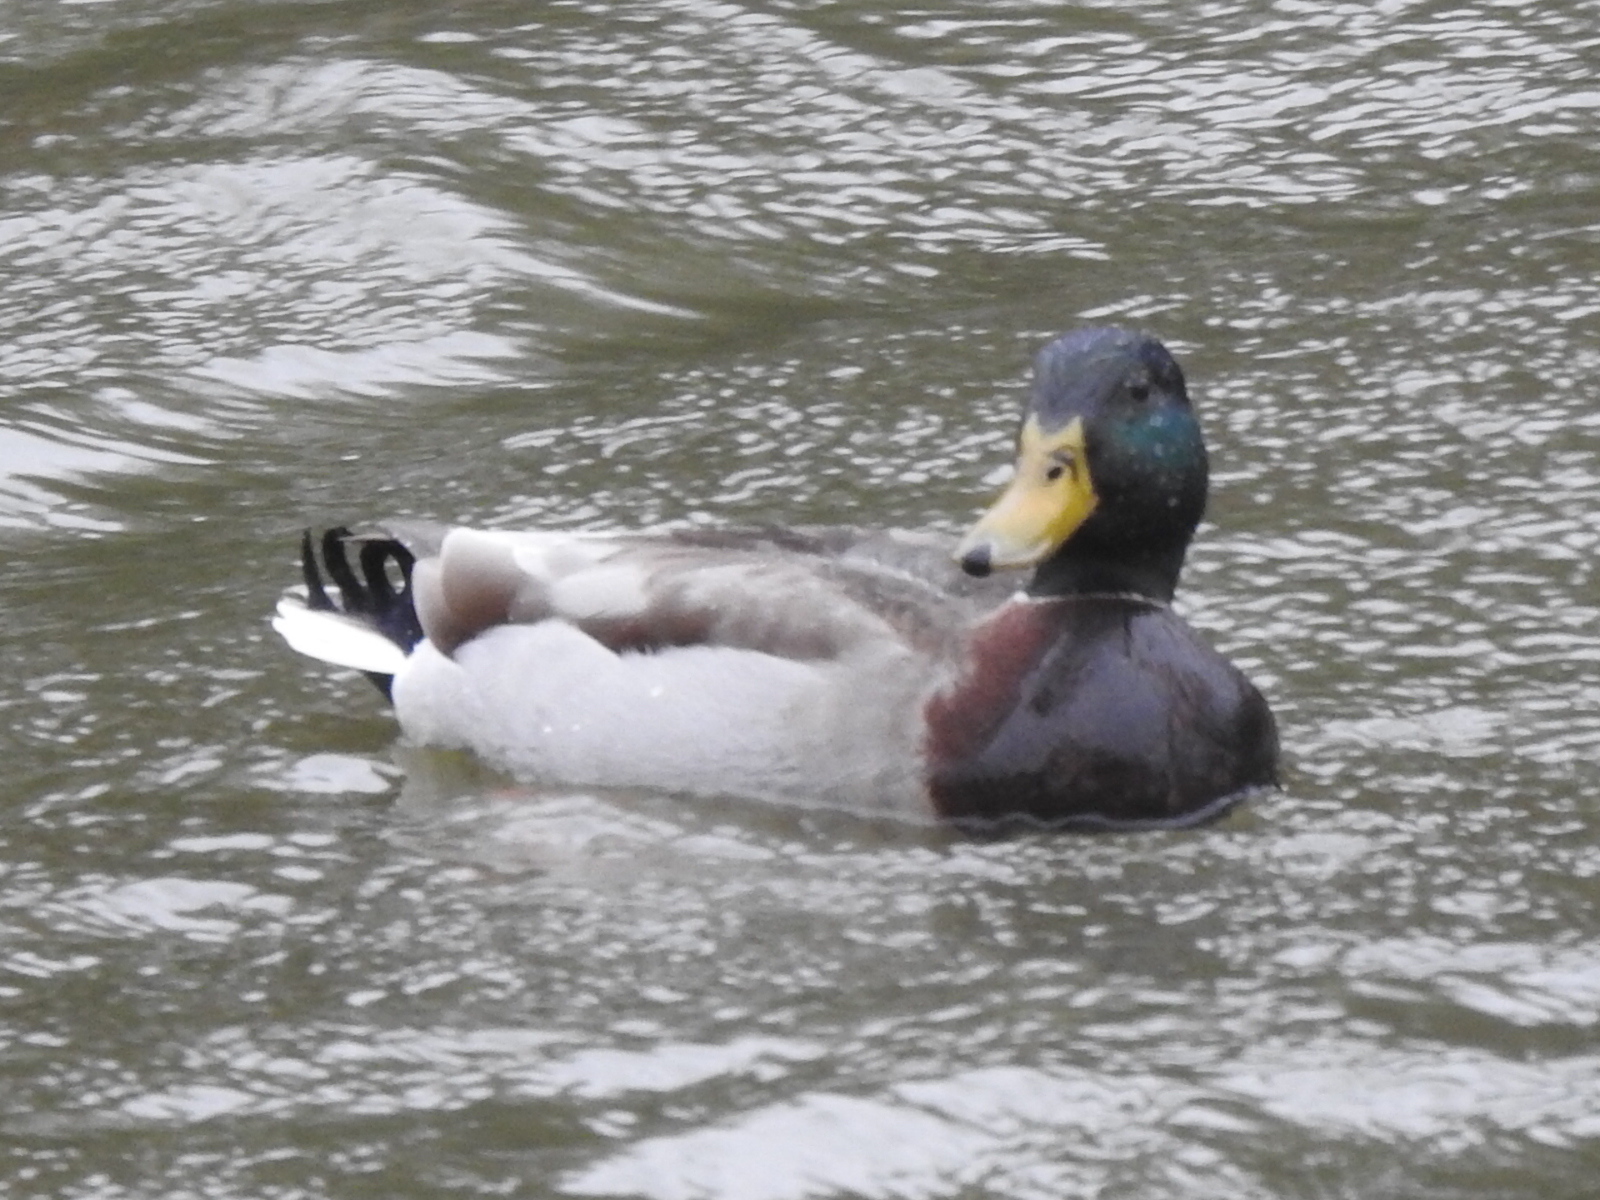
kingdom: Animalia
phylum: Chordata
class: Aves
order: Anseriformes
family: Anatidae
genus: Anas
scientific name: Anas platyrhynchos
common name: Mallard
